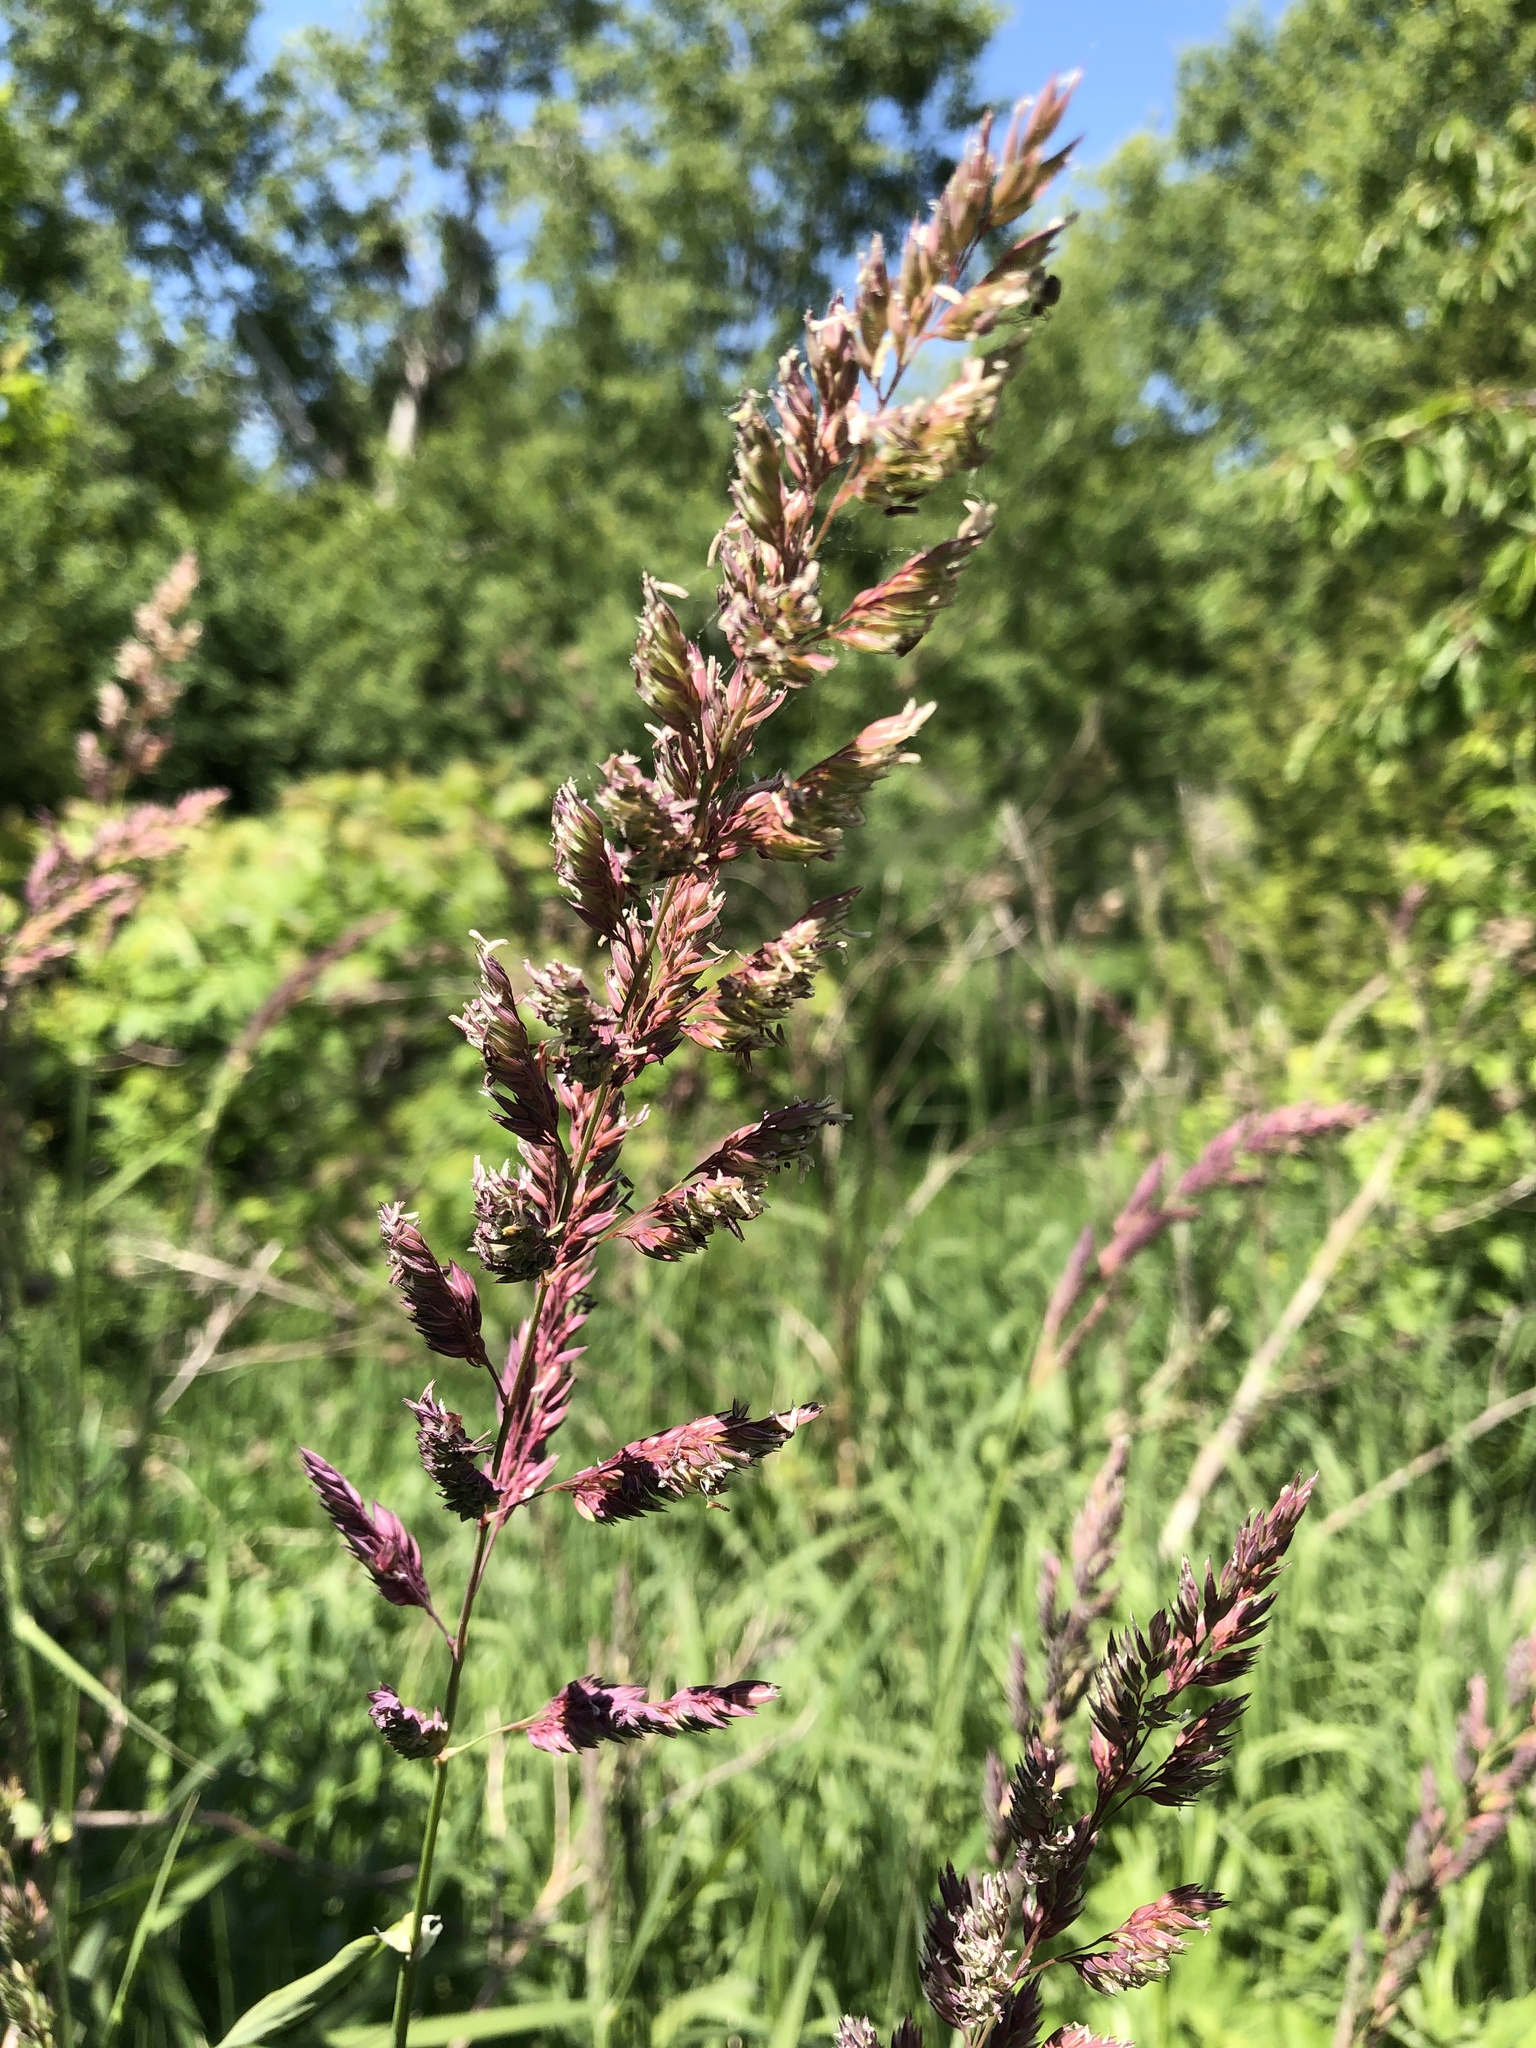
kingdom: Plantae
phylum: Tracheophyta
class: Liliopsida
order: Poales
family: Poaceae
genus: Phalaris
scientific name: Phalaris arundinacea
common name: Reed canary-grass
